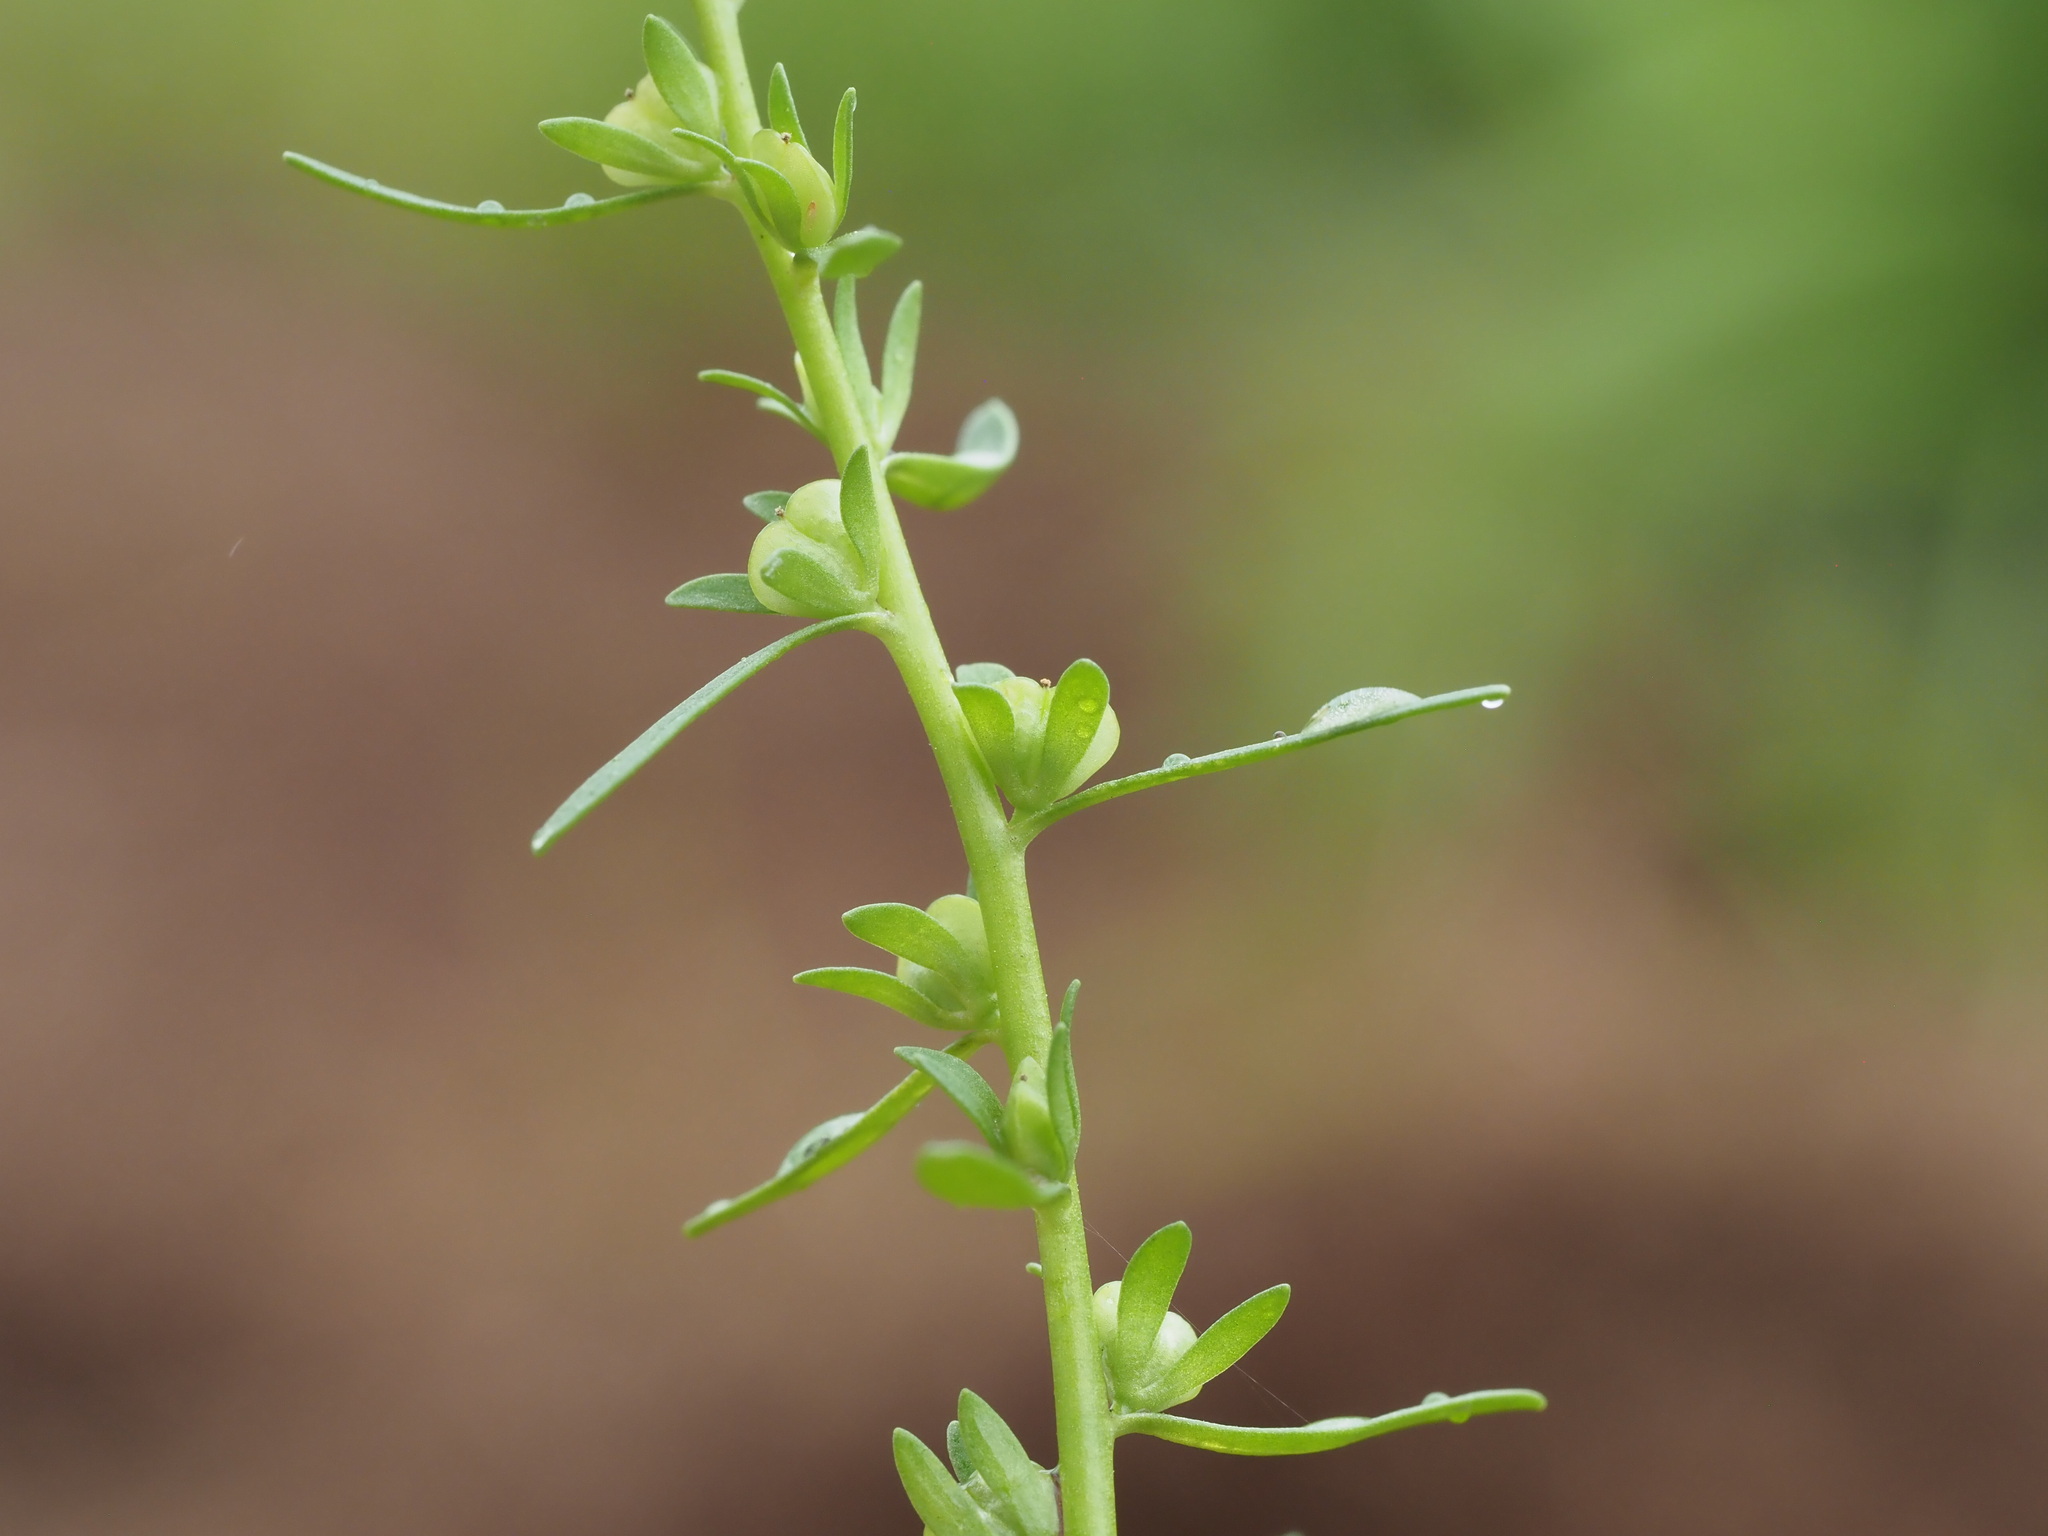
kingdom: Plantae
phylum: Tracheophyta
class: Magnoliopsida
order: Lamiales
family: Plantaginaceae
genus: Veronica
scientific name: Veronica peregrina
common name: Neckweed
